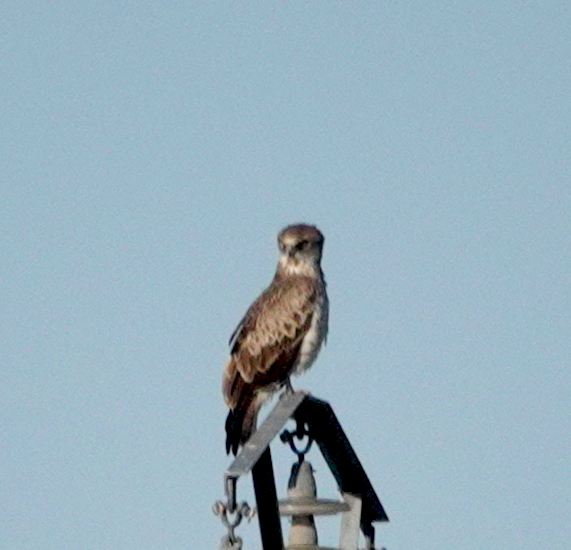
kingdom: Animalia
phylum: Chordata
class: Aves
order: Accipitriformes
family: Accipitridae
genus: Circaetus
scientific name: Circaetus gallicus
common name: Short-toed snake eagle
